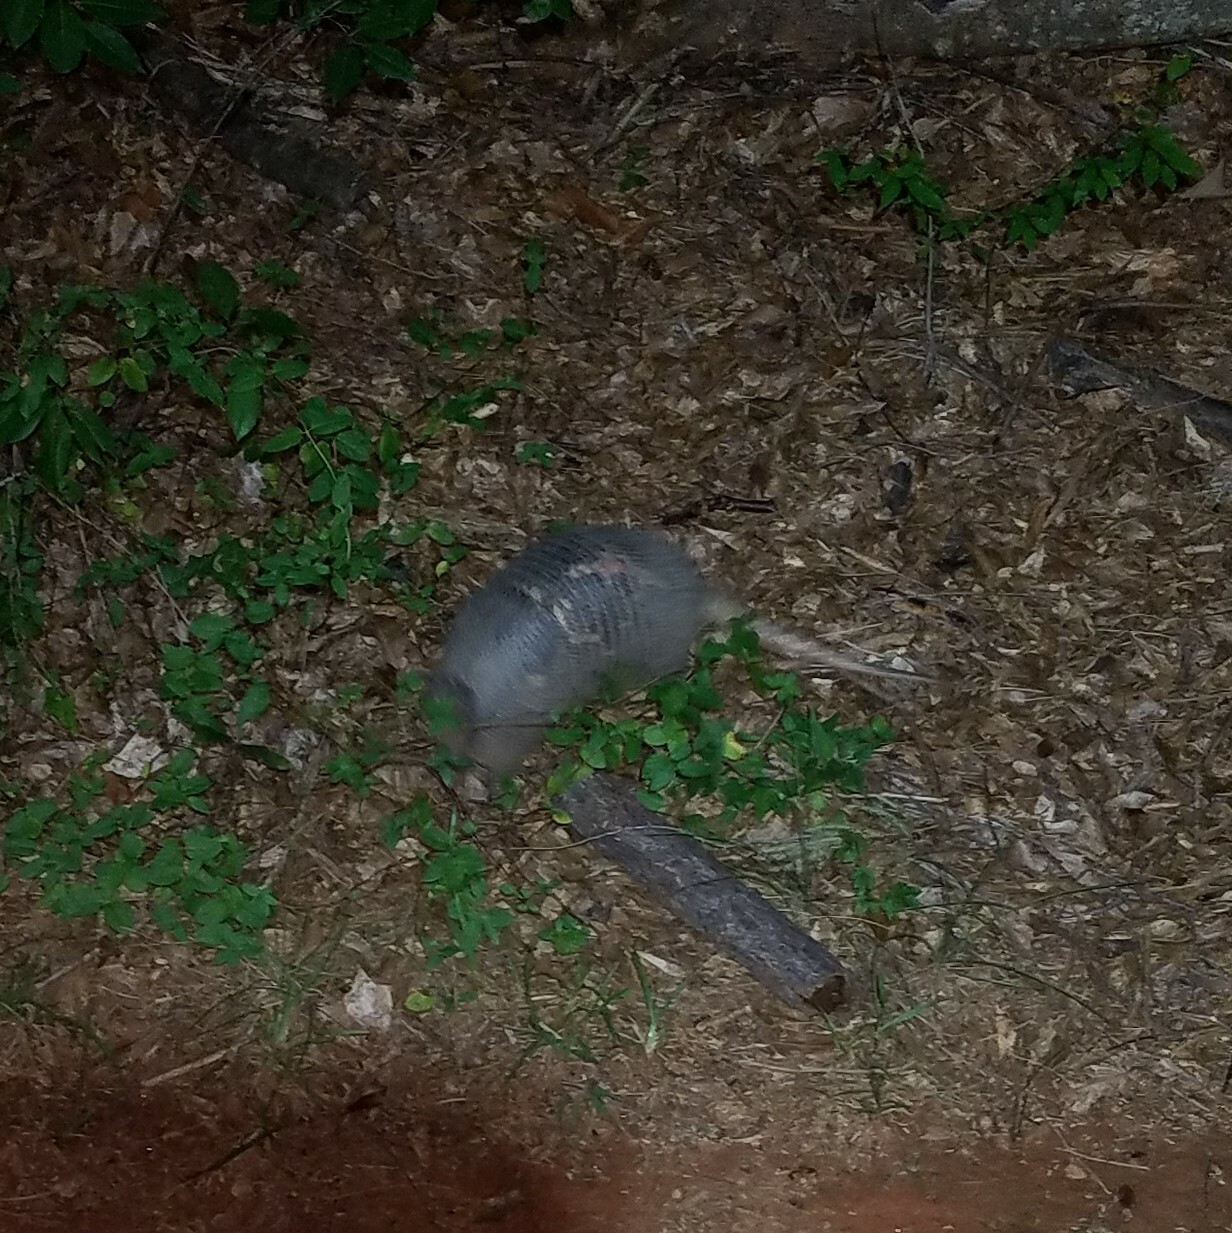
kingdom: Animalia
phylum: Chordata
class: Mammalia
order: Cingulata
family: Dasypodidae
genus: Dasypus
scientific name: Dasypus novemcinctus
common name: Nine-banded armadillo
